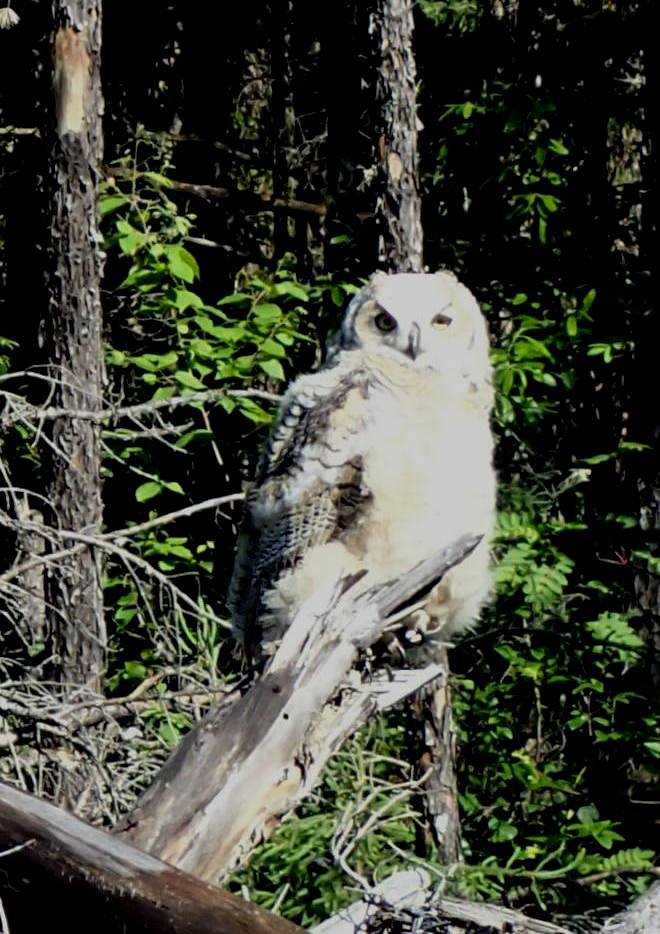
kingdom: Animalia
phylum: Chordata
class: Aves
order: Strigiformes
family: Strigidae
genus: Bubo
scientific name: Bubo virginianus
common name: Great horned owl
